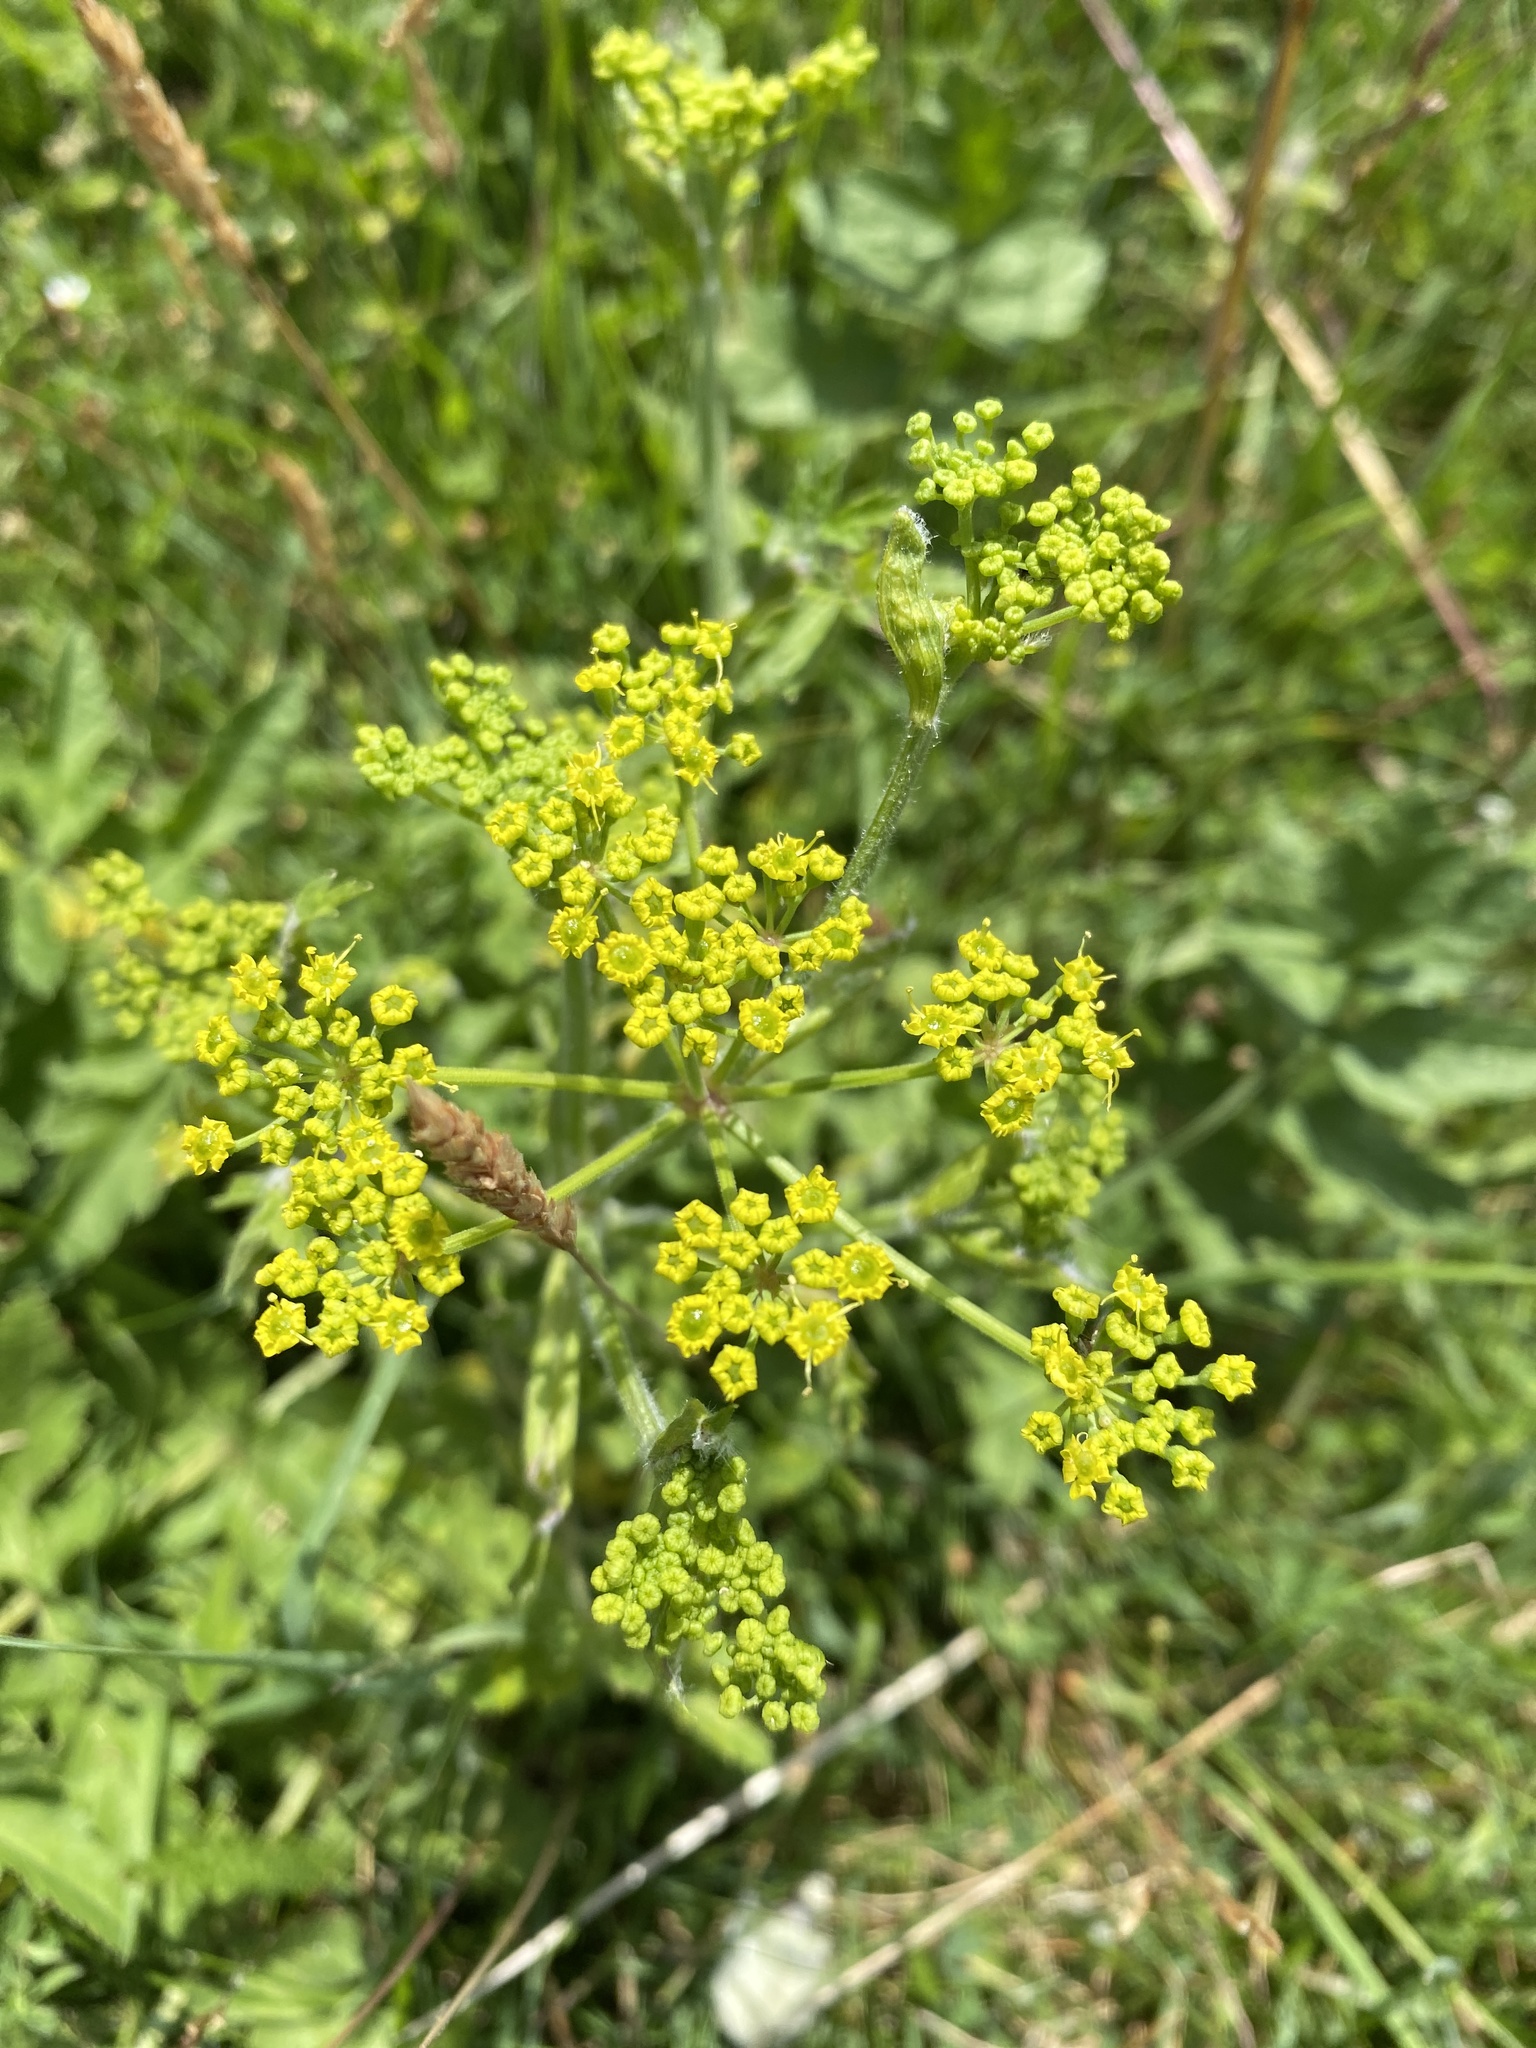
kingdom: Plantae
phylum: Tracheophyta
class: Magnoliopsida
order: Apiales
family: Apiaceae
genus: Pastinaca
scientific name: Pastinaca sativa
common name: Wild parsnip
